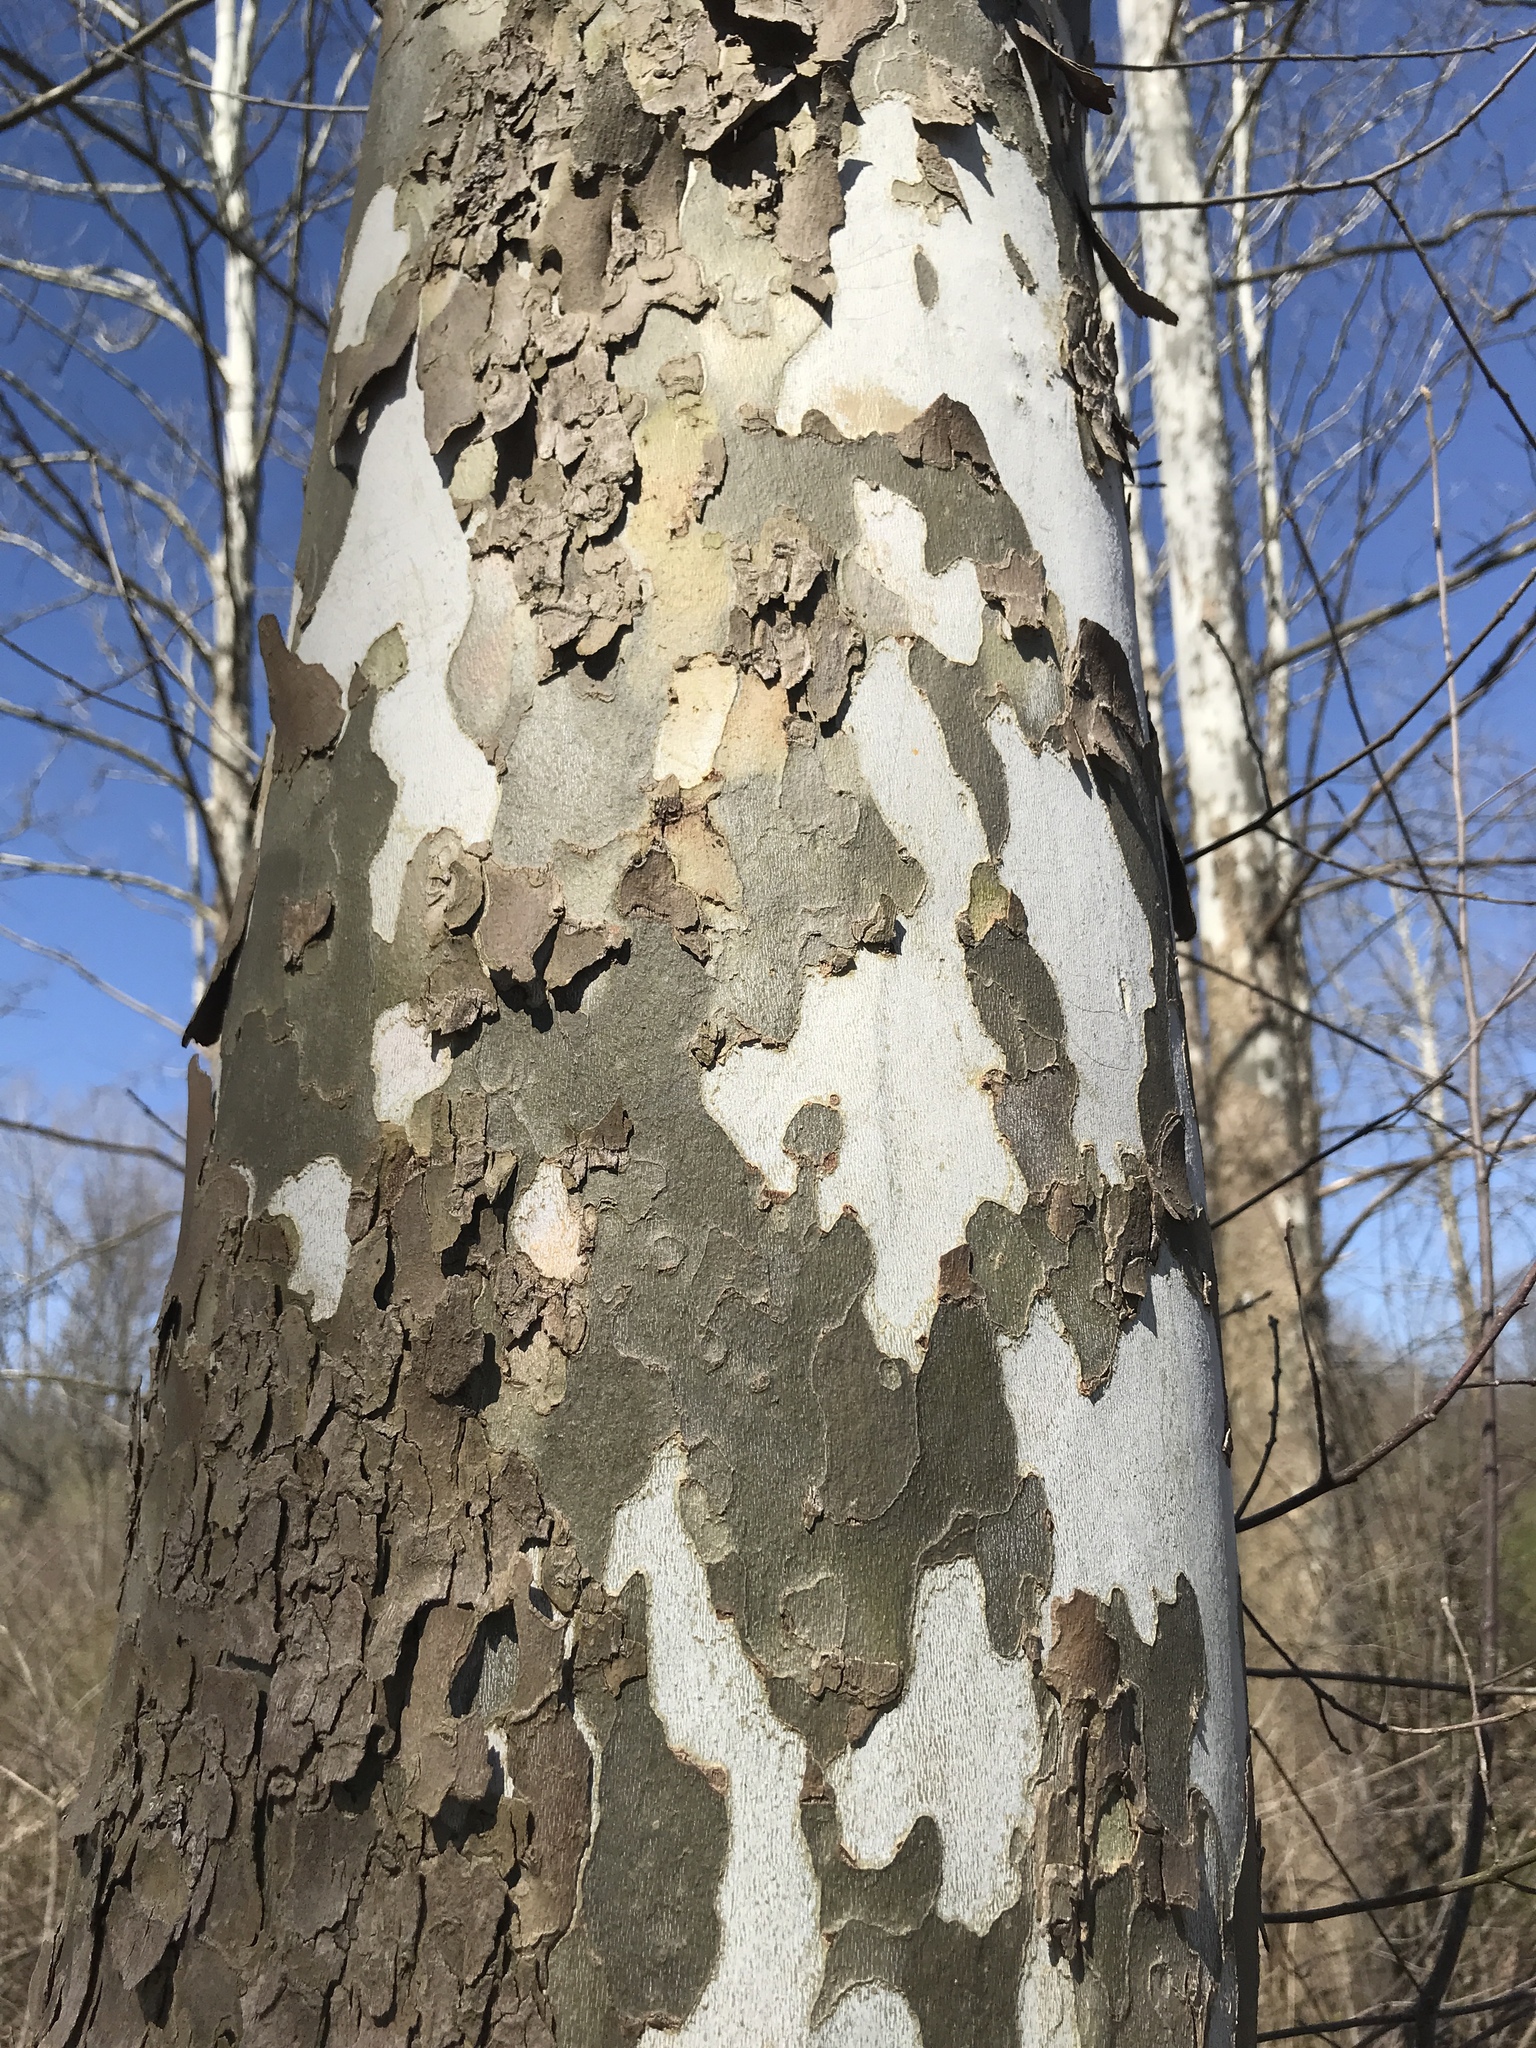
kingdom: Plantae
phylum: Tracheophyta
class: Magnoliopsida
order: Proteales
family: Platanaceae
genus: Platanus
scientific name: Platanus occidentalis
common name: American sycamore
